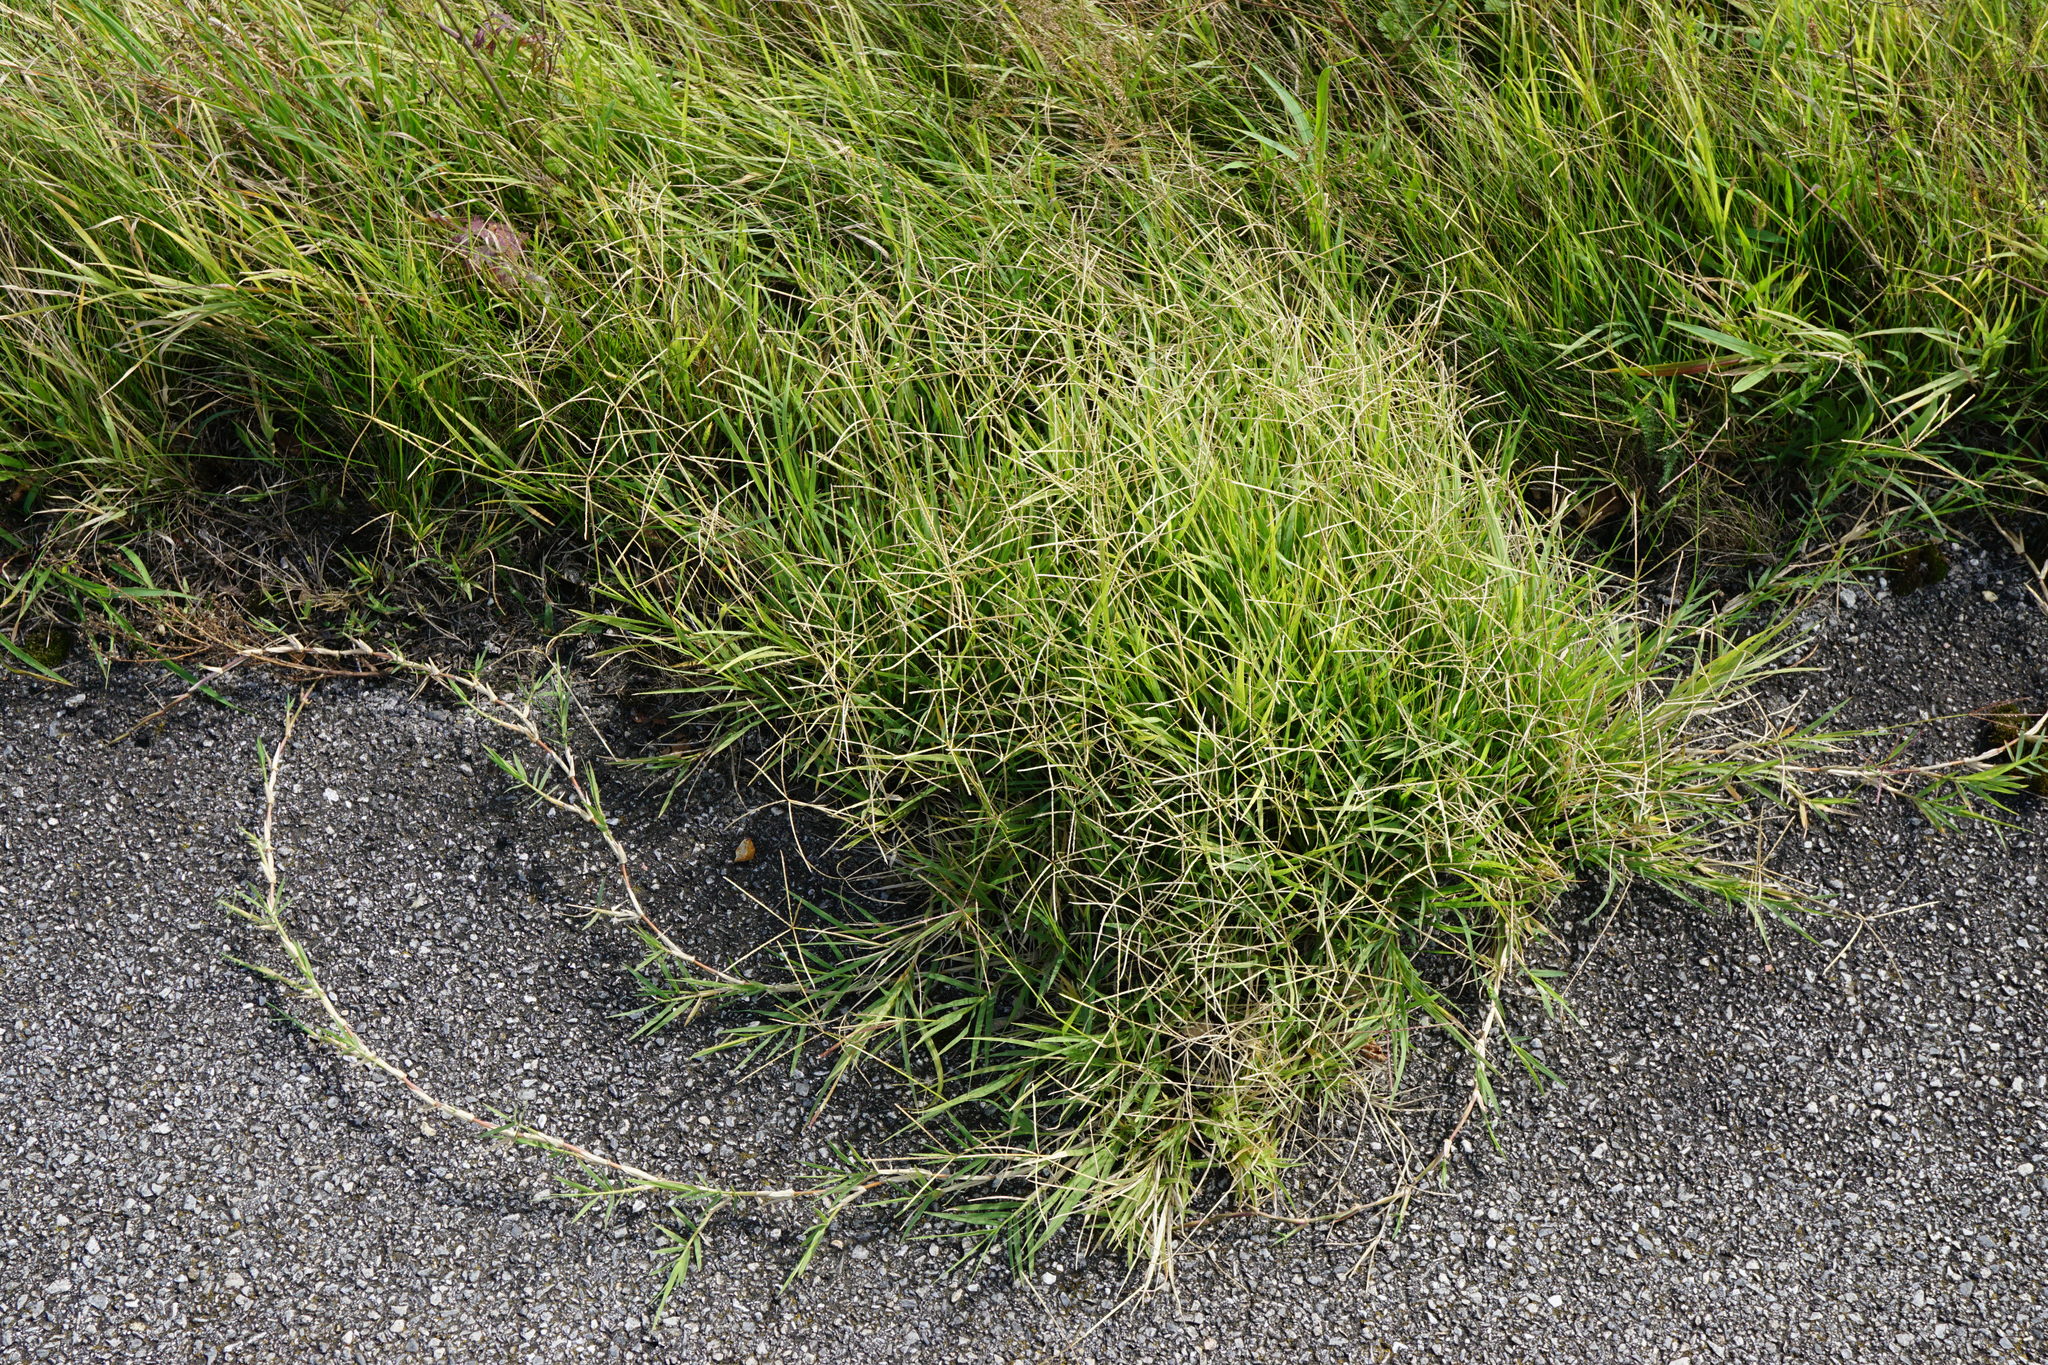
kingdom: Plantae
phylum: Tracheophyta
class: Liliopsida
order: Poales
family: Poaceae
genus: Cynodon
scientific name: Cynodon dactylon
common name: Bermuda grass
